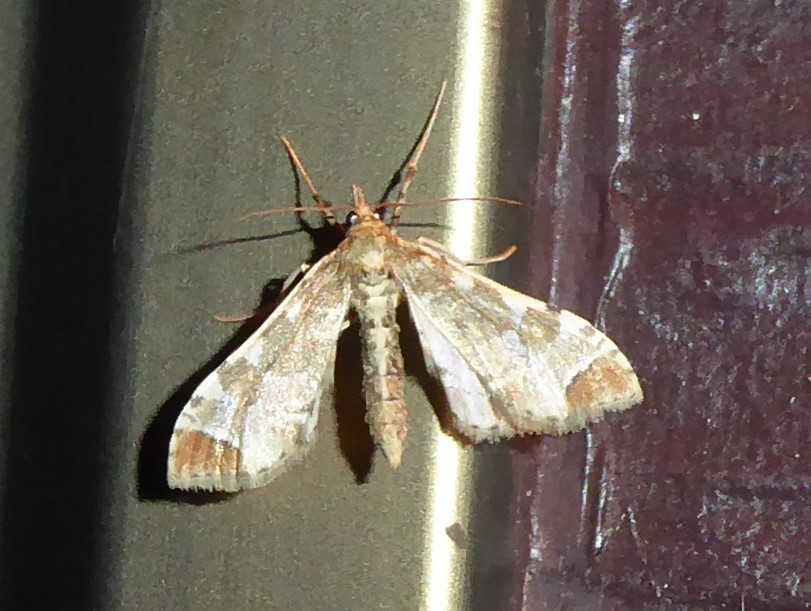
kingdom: Animalia
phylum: Arthropoda
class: Insecta
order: Lepidoptera
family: Crambidae
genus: Sceliodes
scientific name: Sceliodes cordalis
